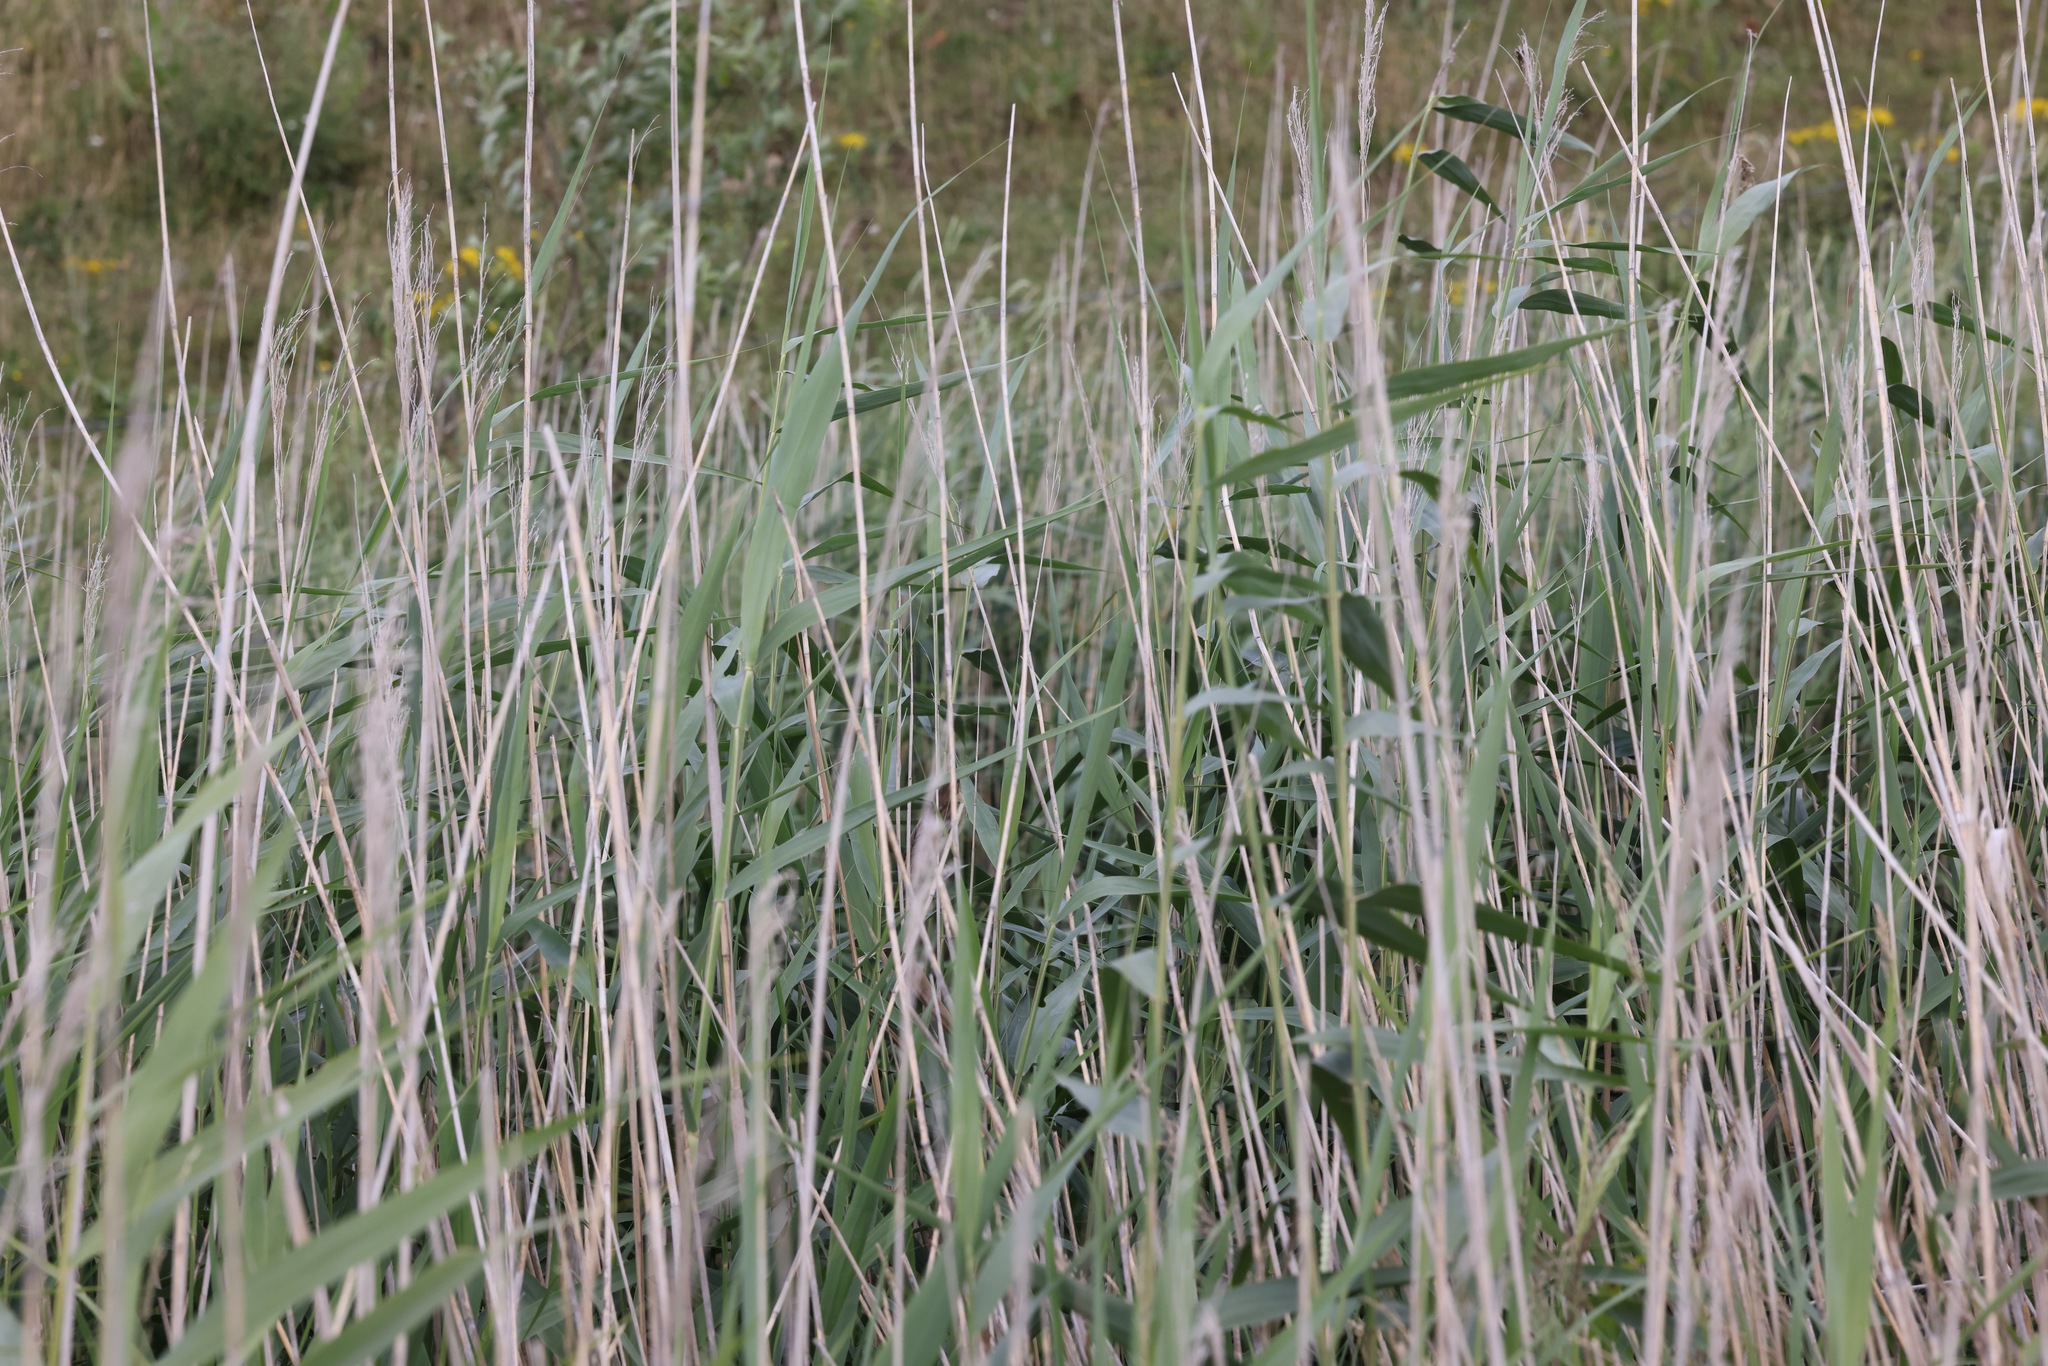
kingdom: Plantae
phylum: Tracheophyta
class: Liliopsida
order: Poales
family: Poaceae
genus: Phragmites
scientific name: Phragmites australis
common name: Common reed
